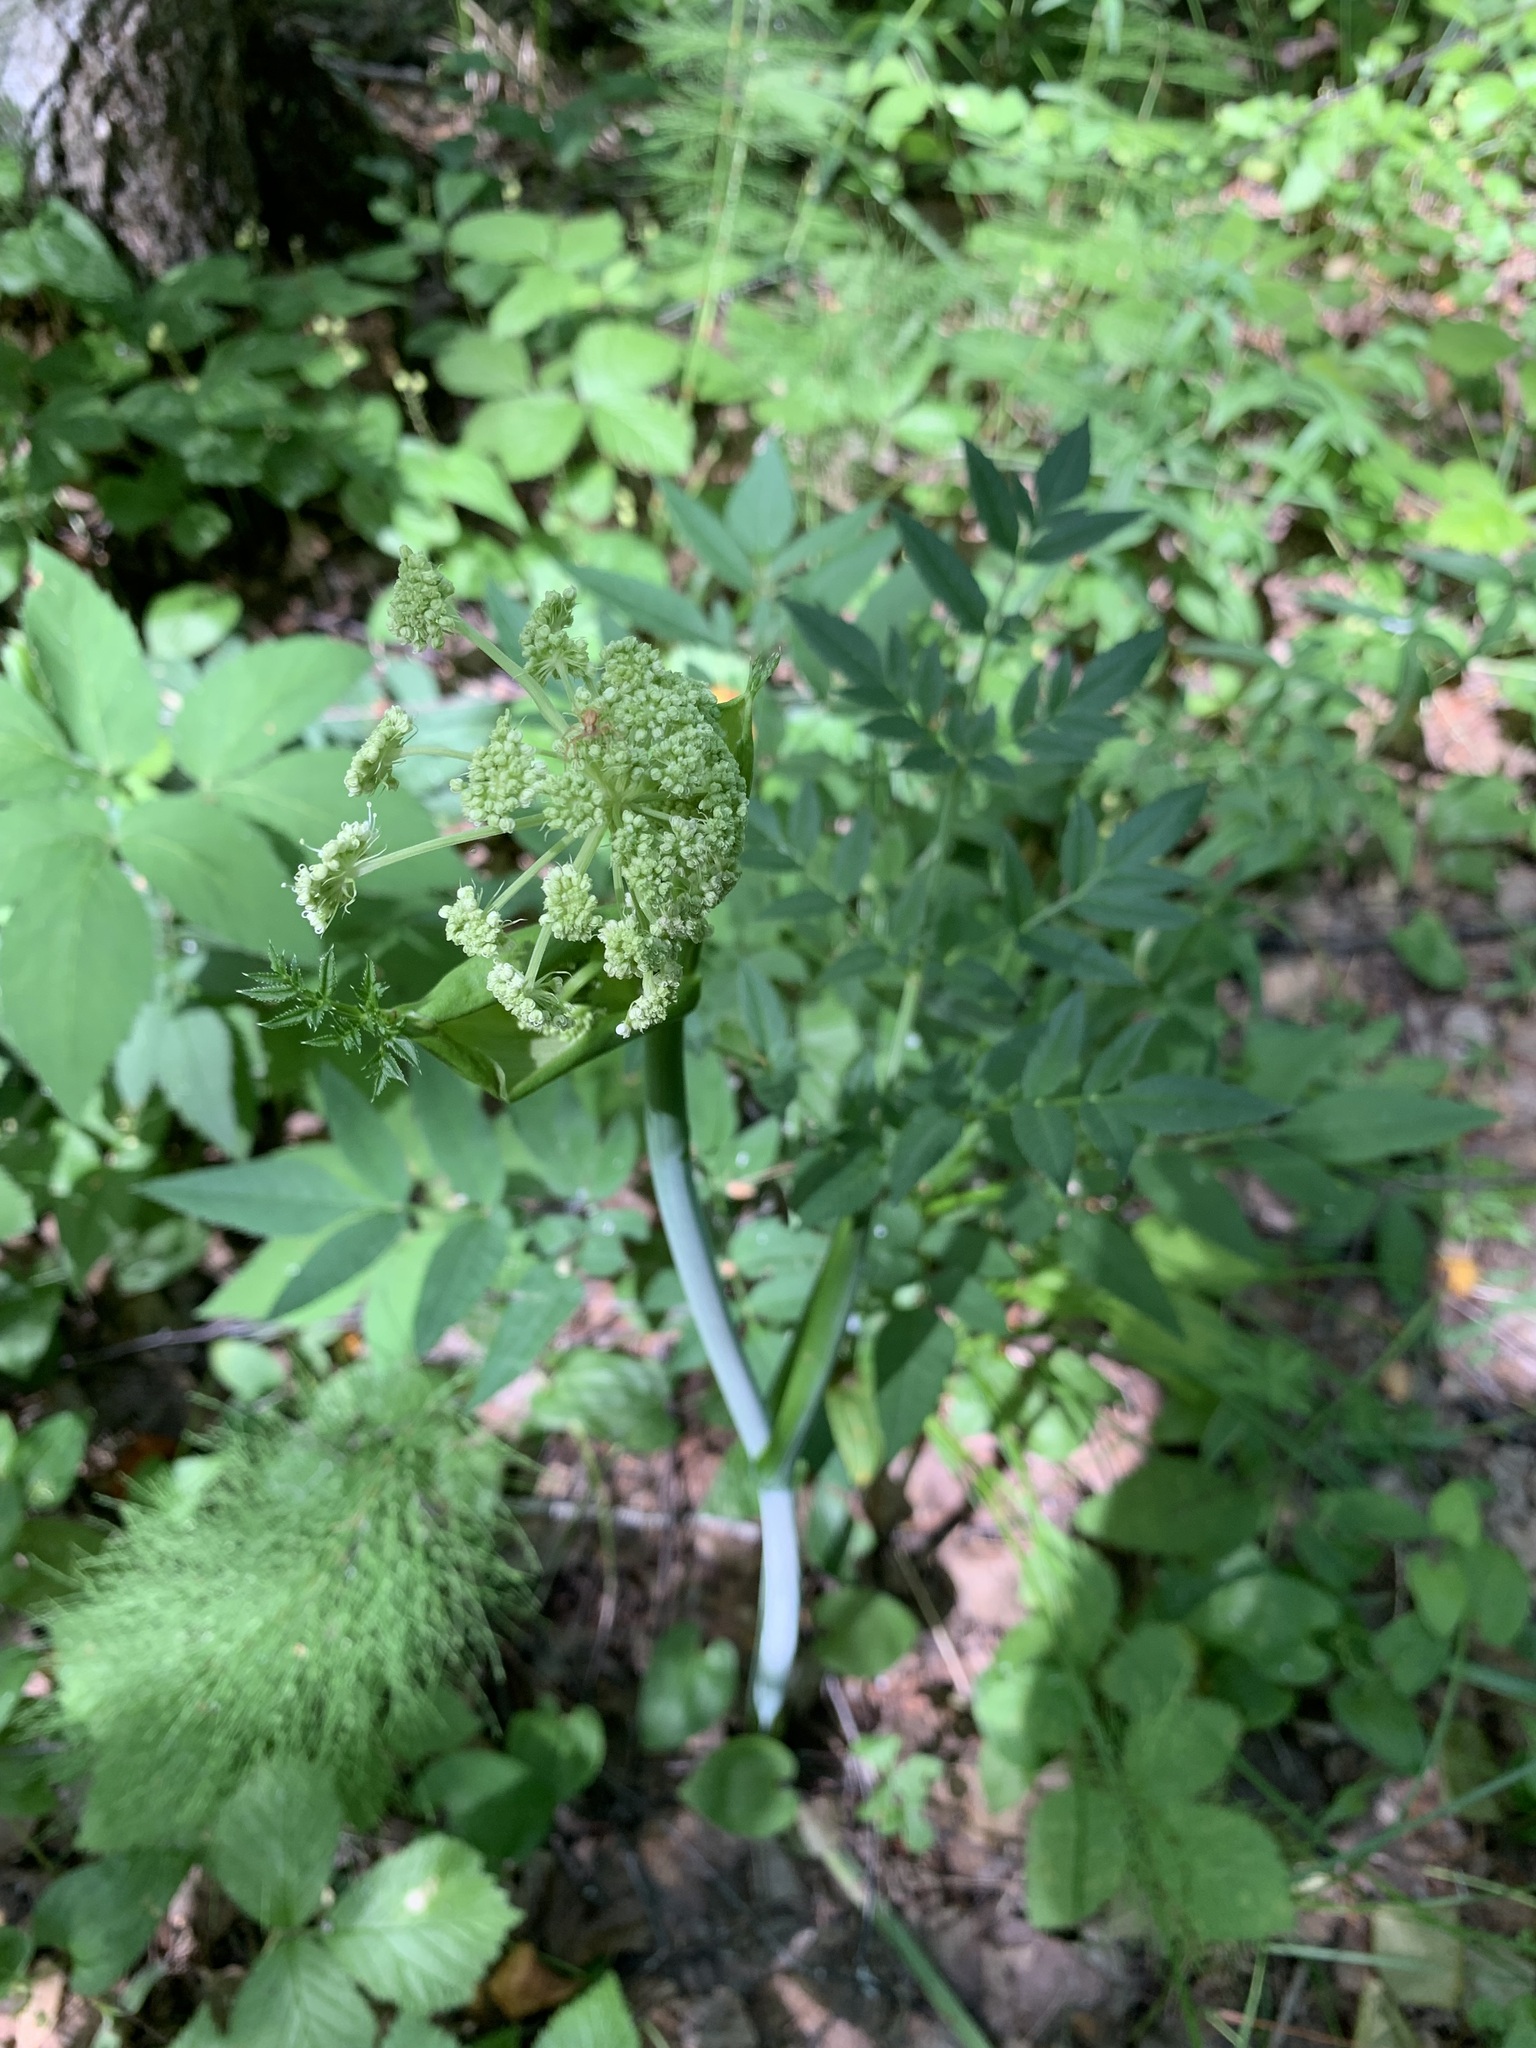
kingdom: Plantae
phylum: Tracheophyta
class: Magnoliopsida
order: Apiales
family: Apiaceae
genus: Angelica
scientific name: Angelica sylvestris
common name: Wild angelica
